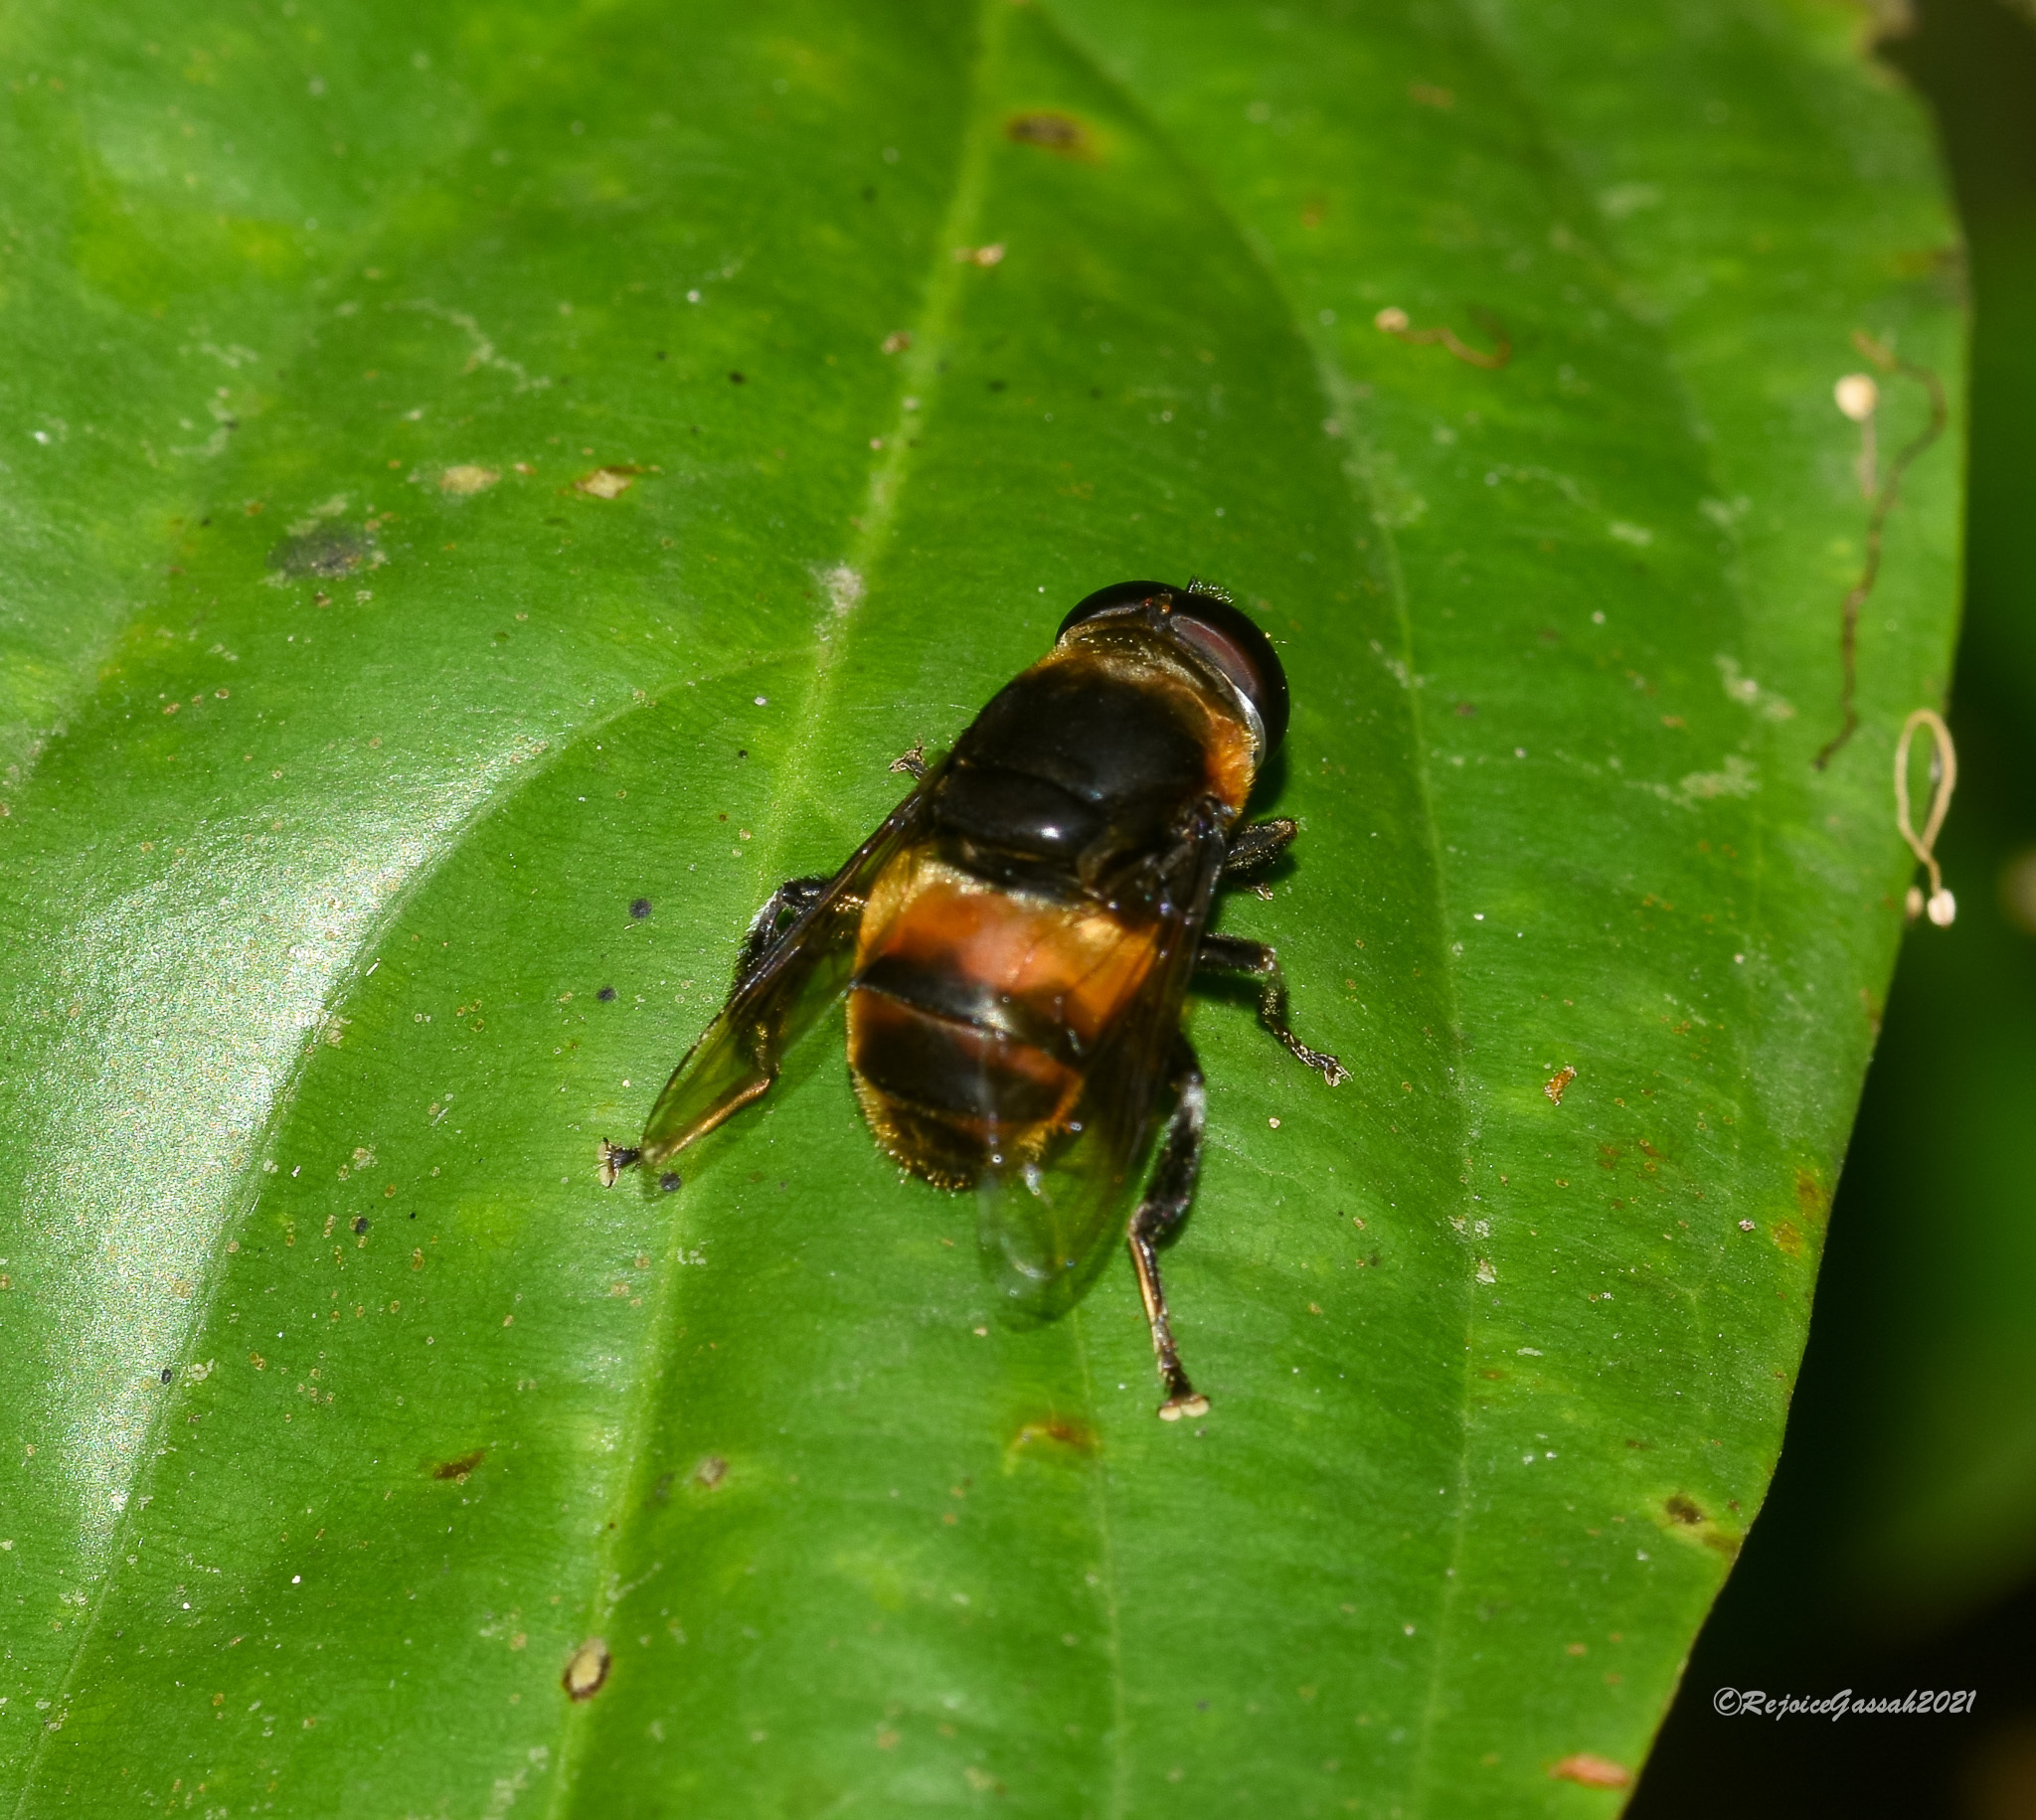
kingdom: Animalia
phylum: Arthropoda
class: Insecta
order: Diptera
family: Syrphidae
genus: Phytomia
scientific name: Phytomia zonata
